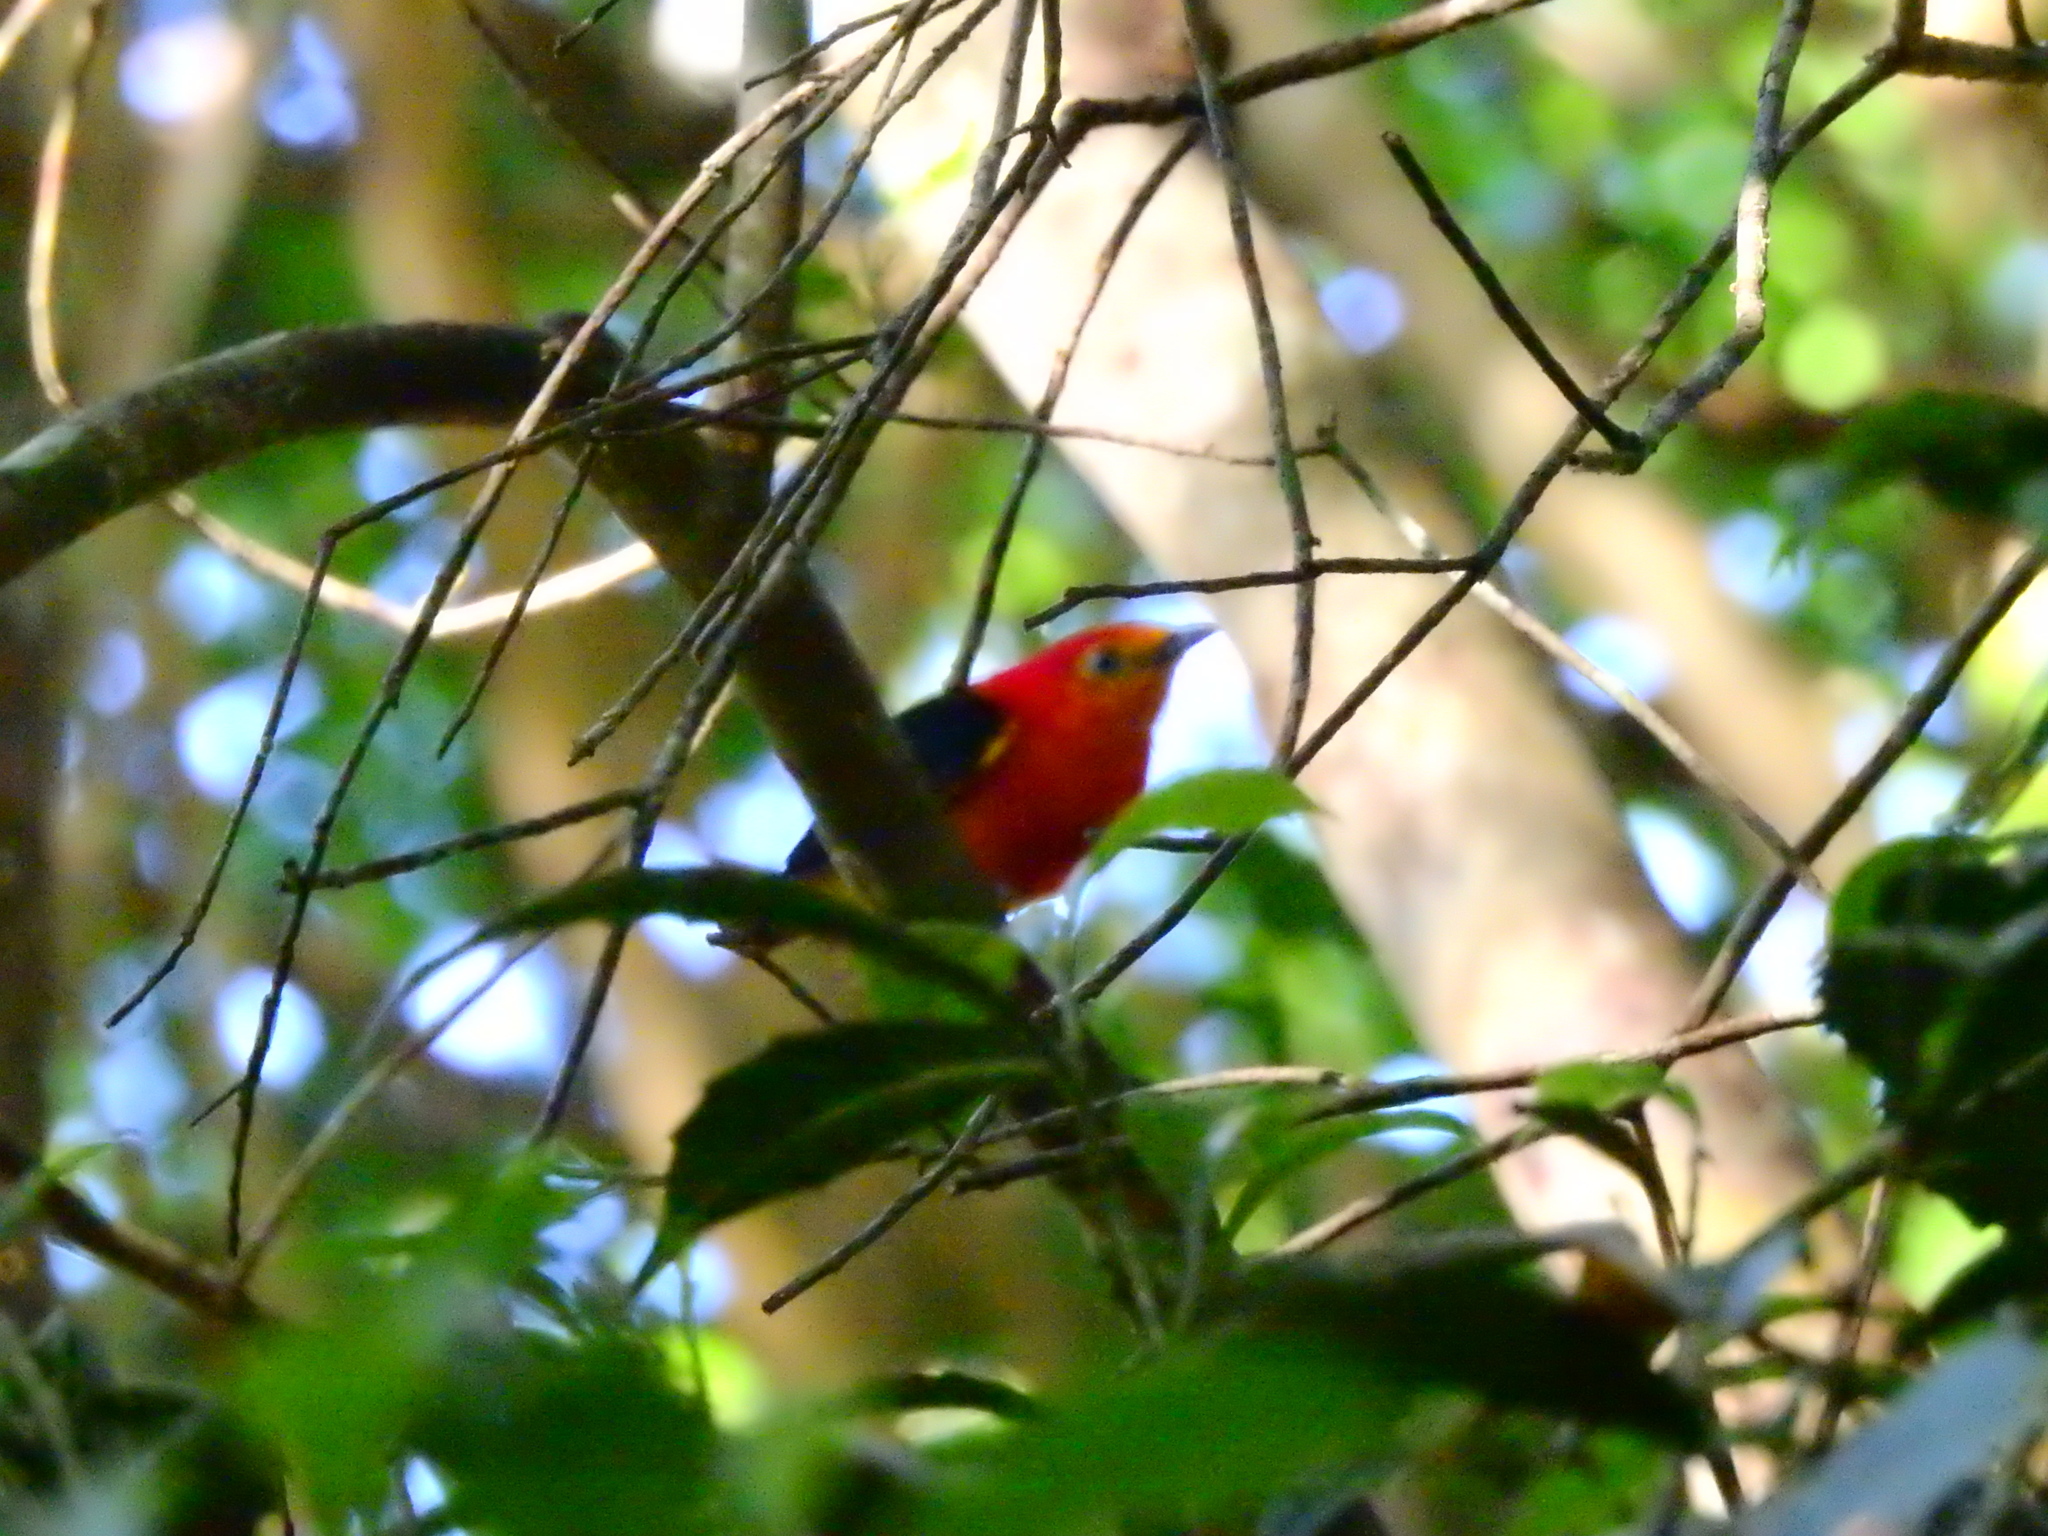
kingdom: Animalia
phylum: Chordata
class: Aves
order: Passeriformes
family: Pipridae
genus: Pipra
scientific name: Pipra fasciicauda
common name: Band-tailed manakin
